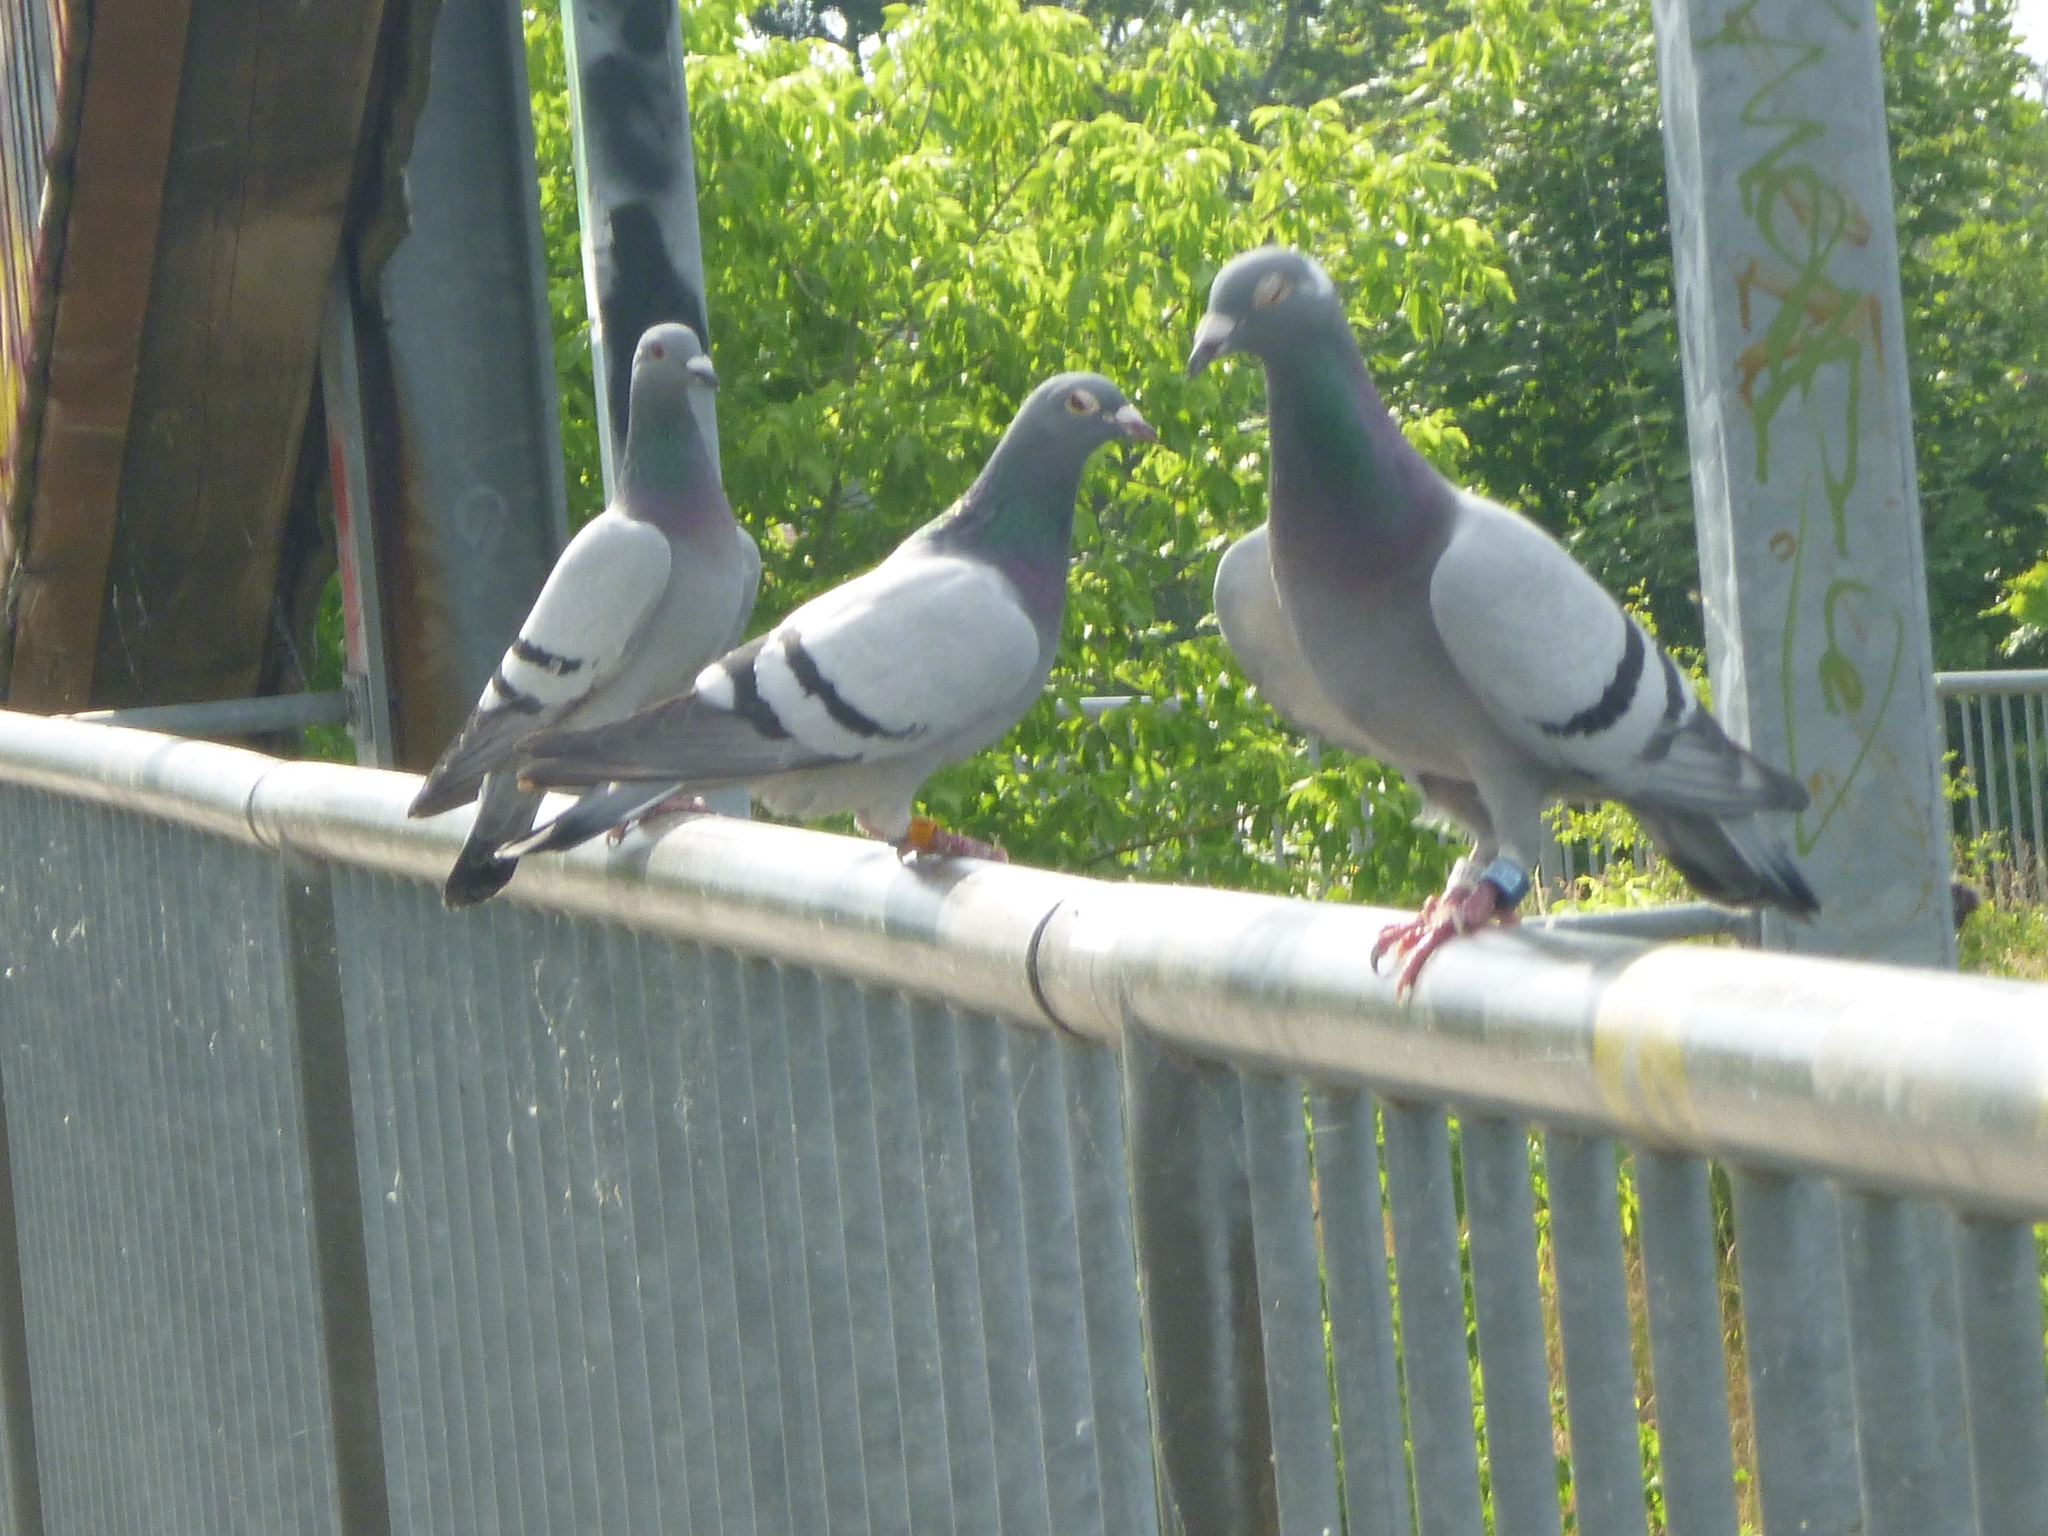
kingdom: Animalia
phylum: Chordata
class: Aves
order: Columbiformes
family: Columbidae
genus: Columba
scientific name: Columba livia
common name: Rock pigeon
